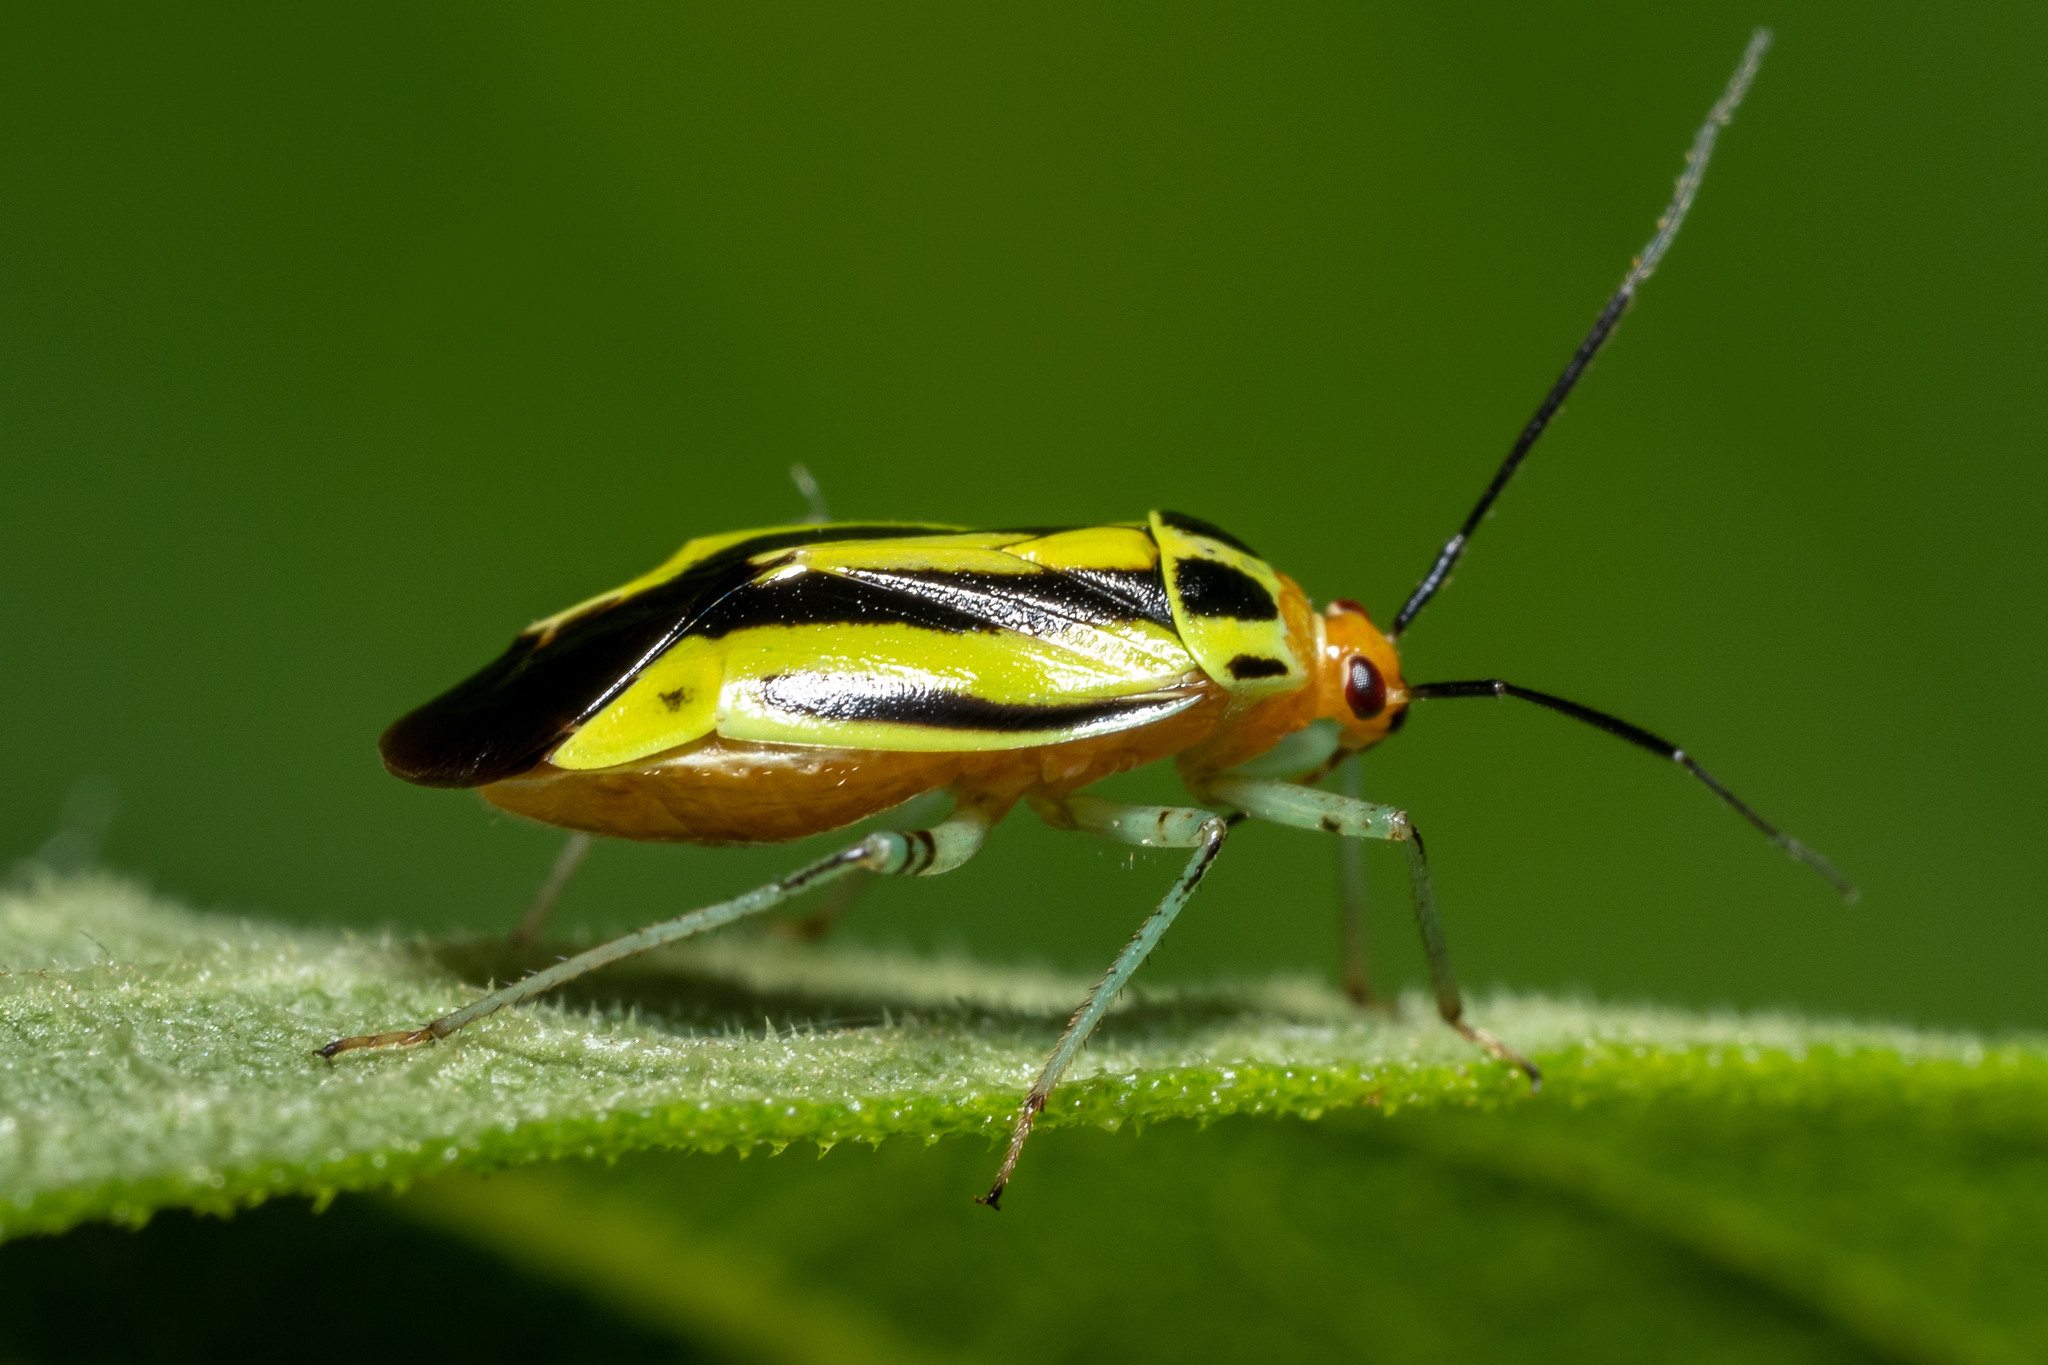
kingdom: Animalia
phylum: Arthropoda
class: Insecta
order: Hemiptera
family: Miridae
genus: Poecilocapsus
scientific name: Poecilocapsus lineatus
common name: Four-lined plant bug
